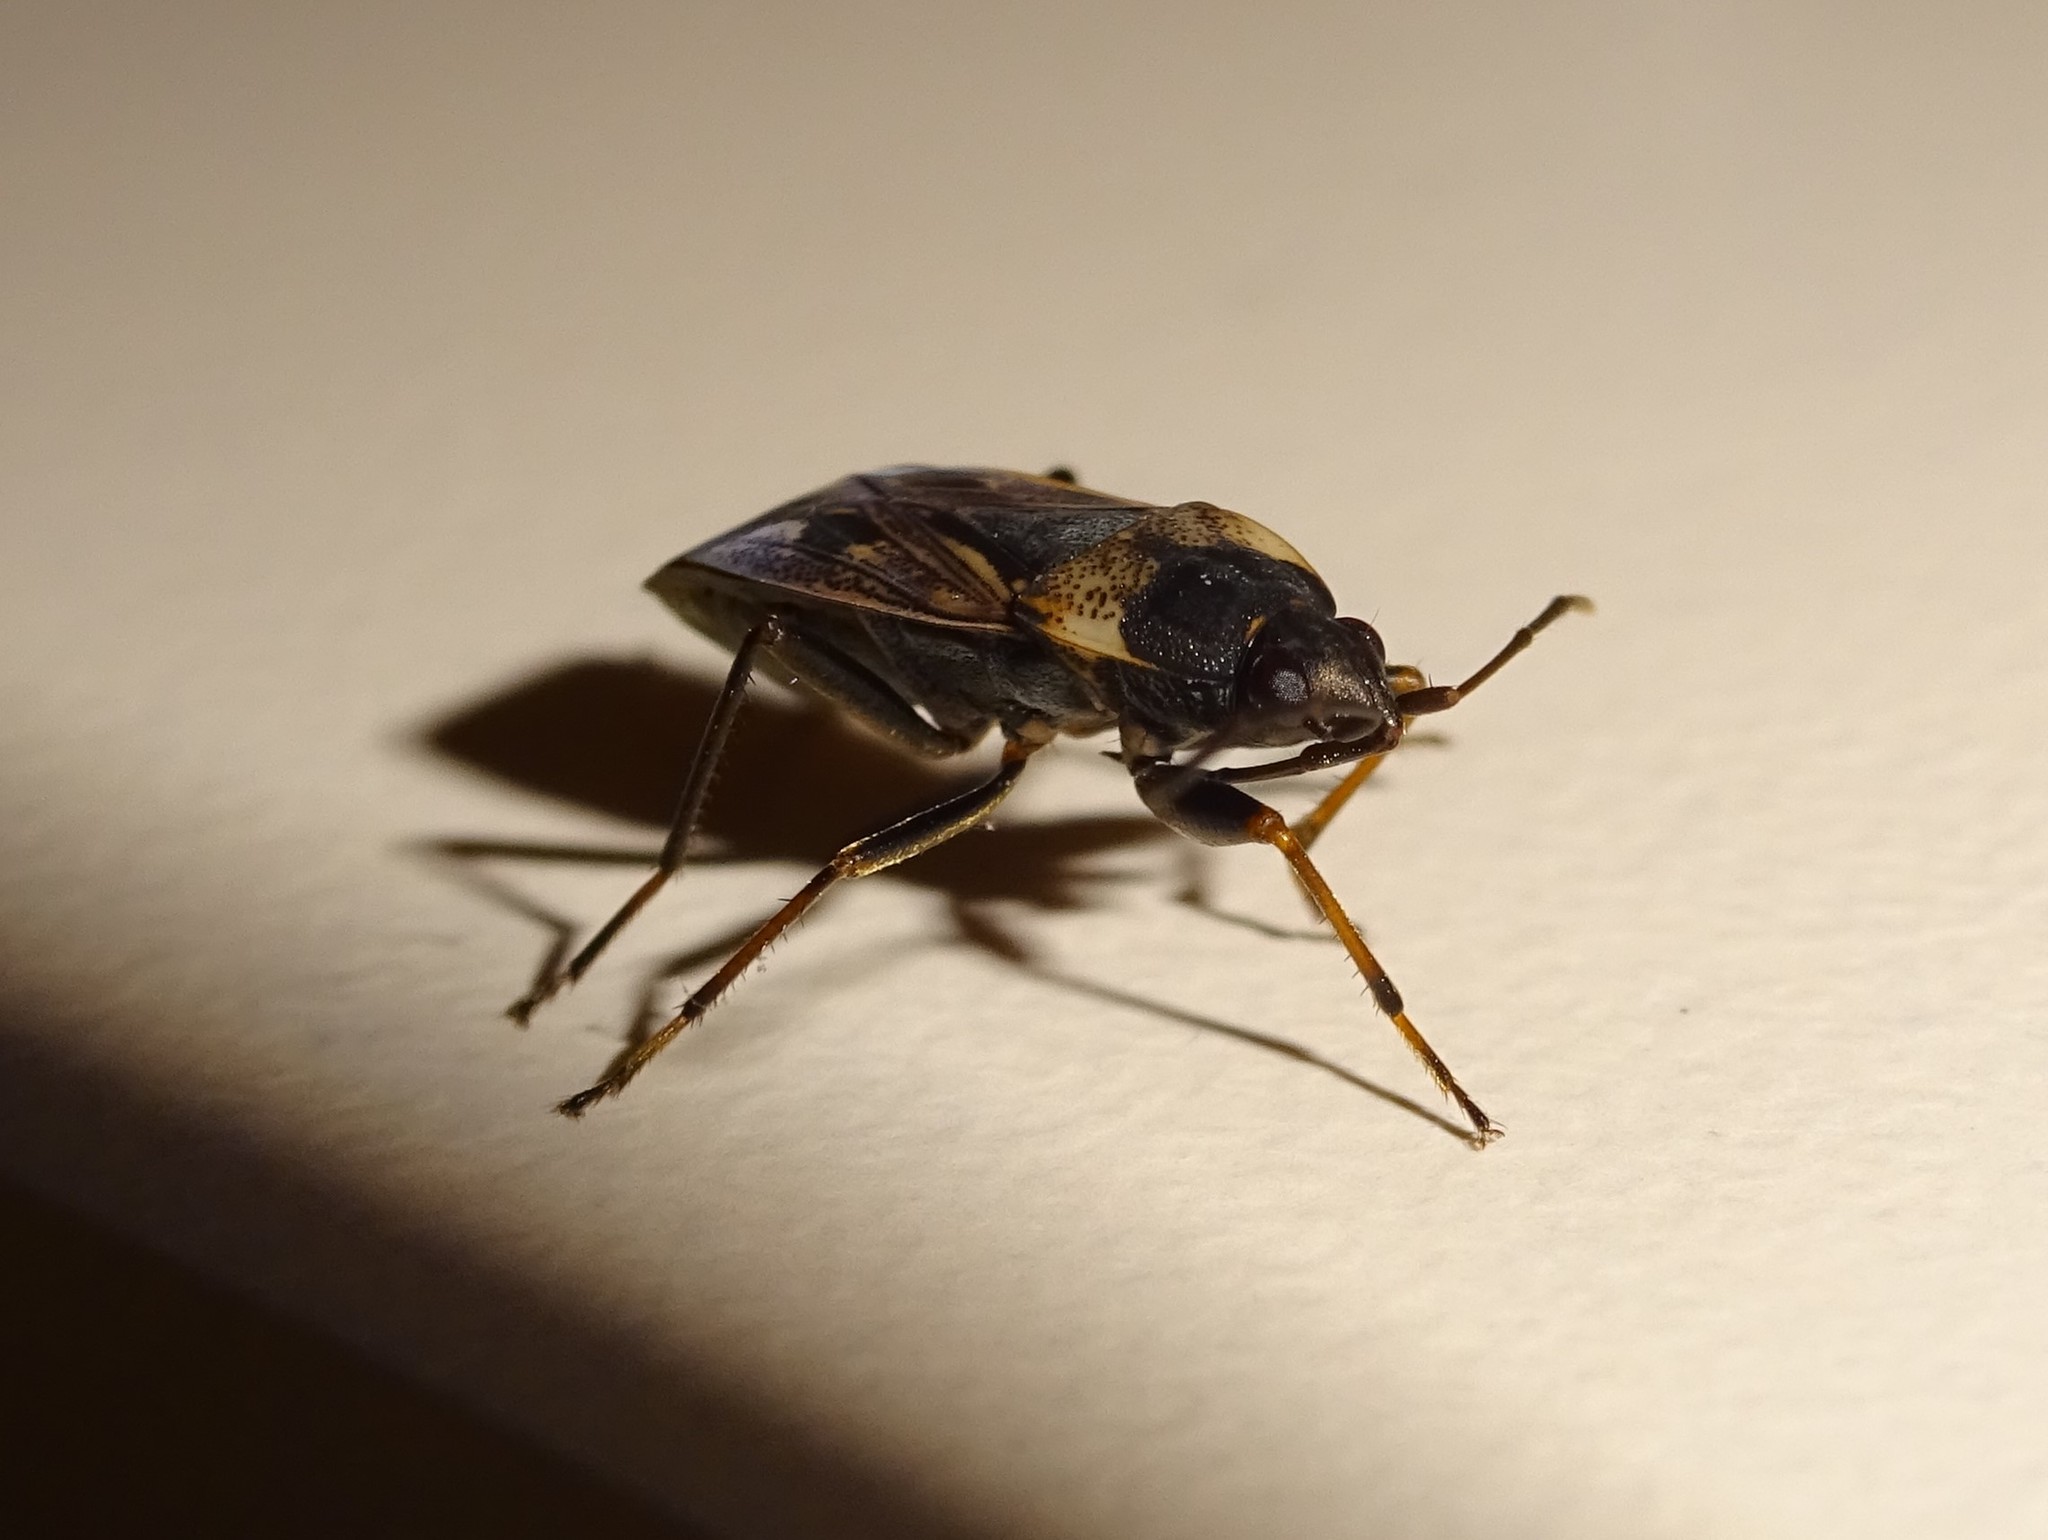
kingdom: Animalia
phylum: Arthropoda
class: Insecta
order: Hemiptera
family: Rhyparochromidae
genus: Rhyparochromus
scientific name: Rhyparochromus vulgaris
